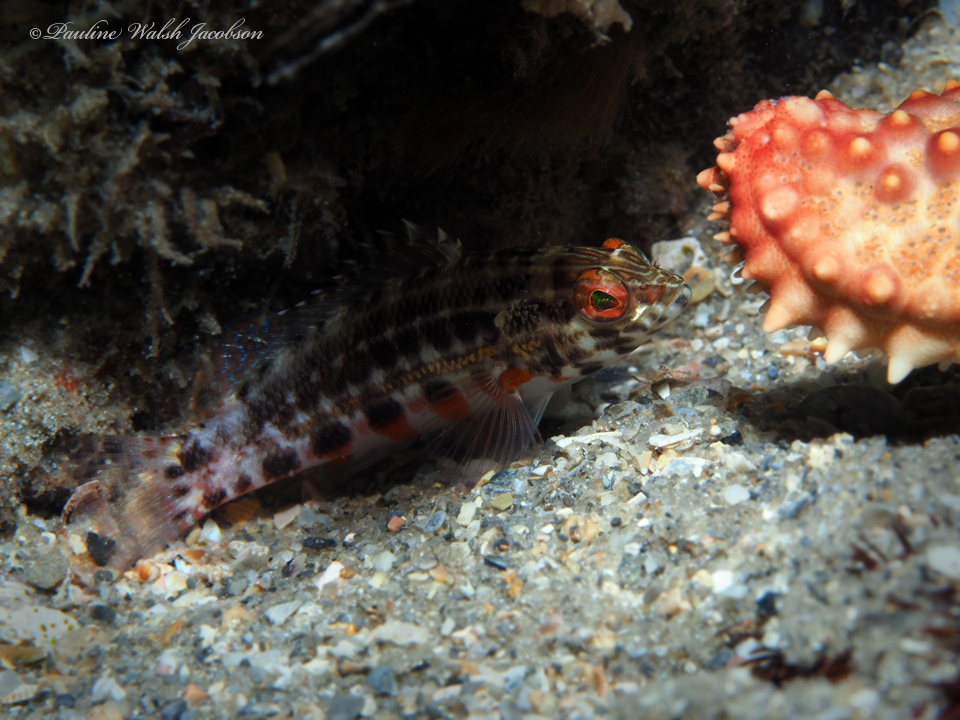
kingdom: Animalia
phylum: Chordata
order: Perciformes
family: Serranidae
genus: Serranus
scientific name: Serranus baldwini
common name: Lantern bass
